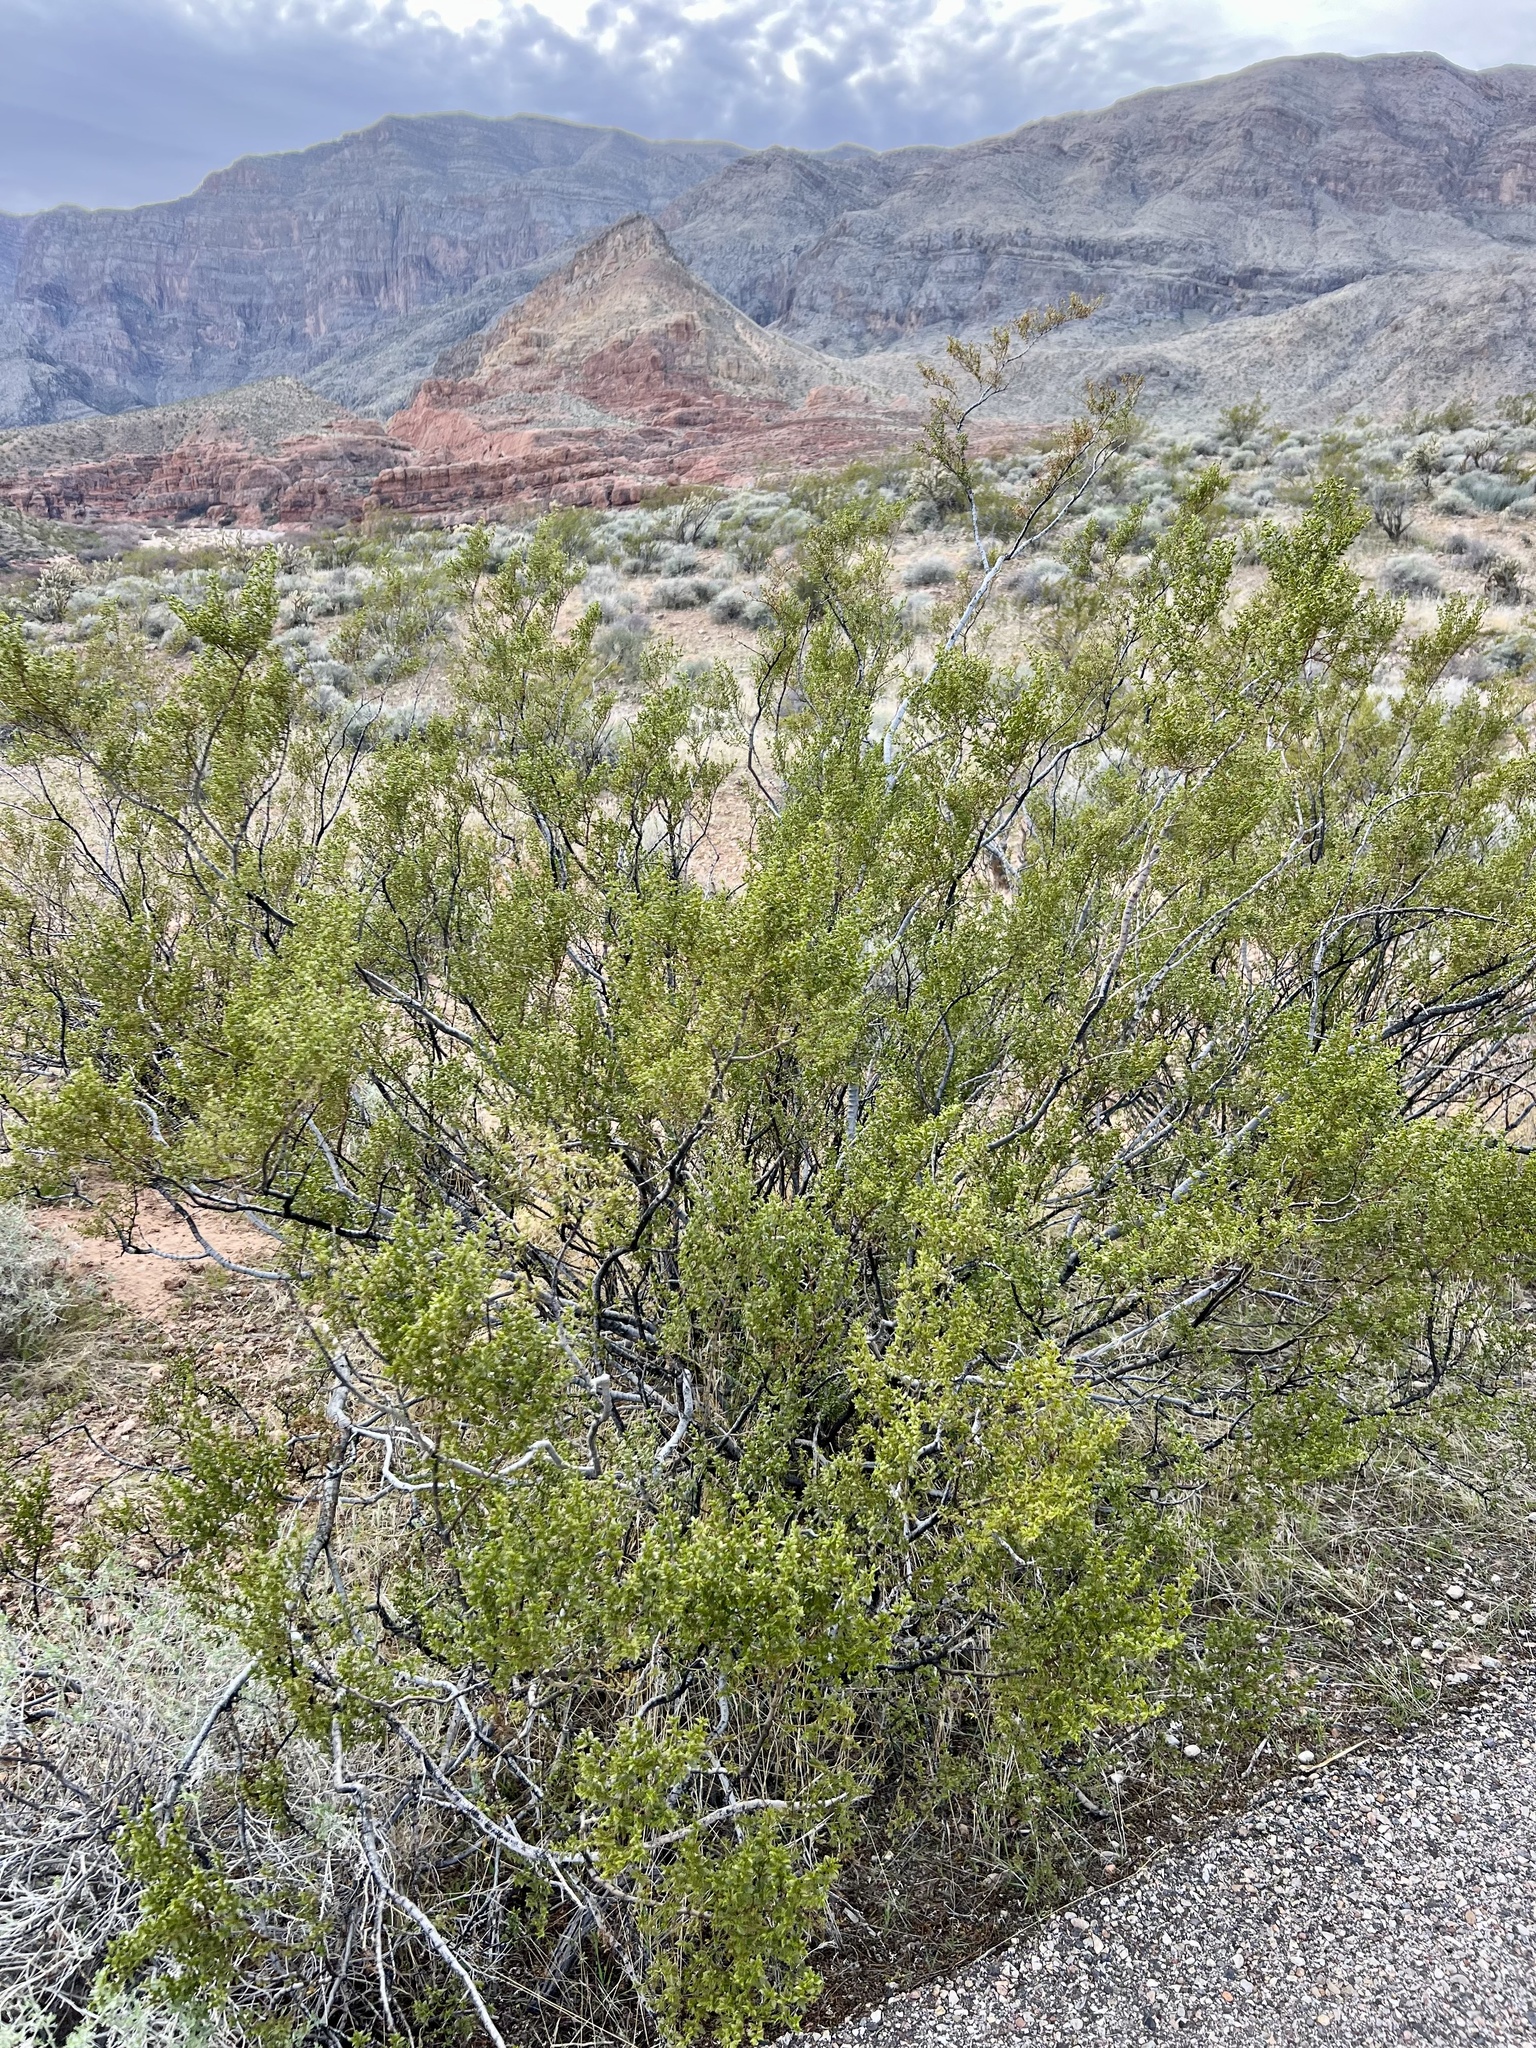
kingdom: Plantae
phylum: Tracheophyta
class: Magnoliopsida
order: Zygophyllales
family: Zygophyllaceae
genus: Larrea
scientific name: Larrea tridentata
